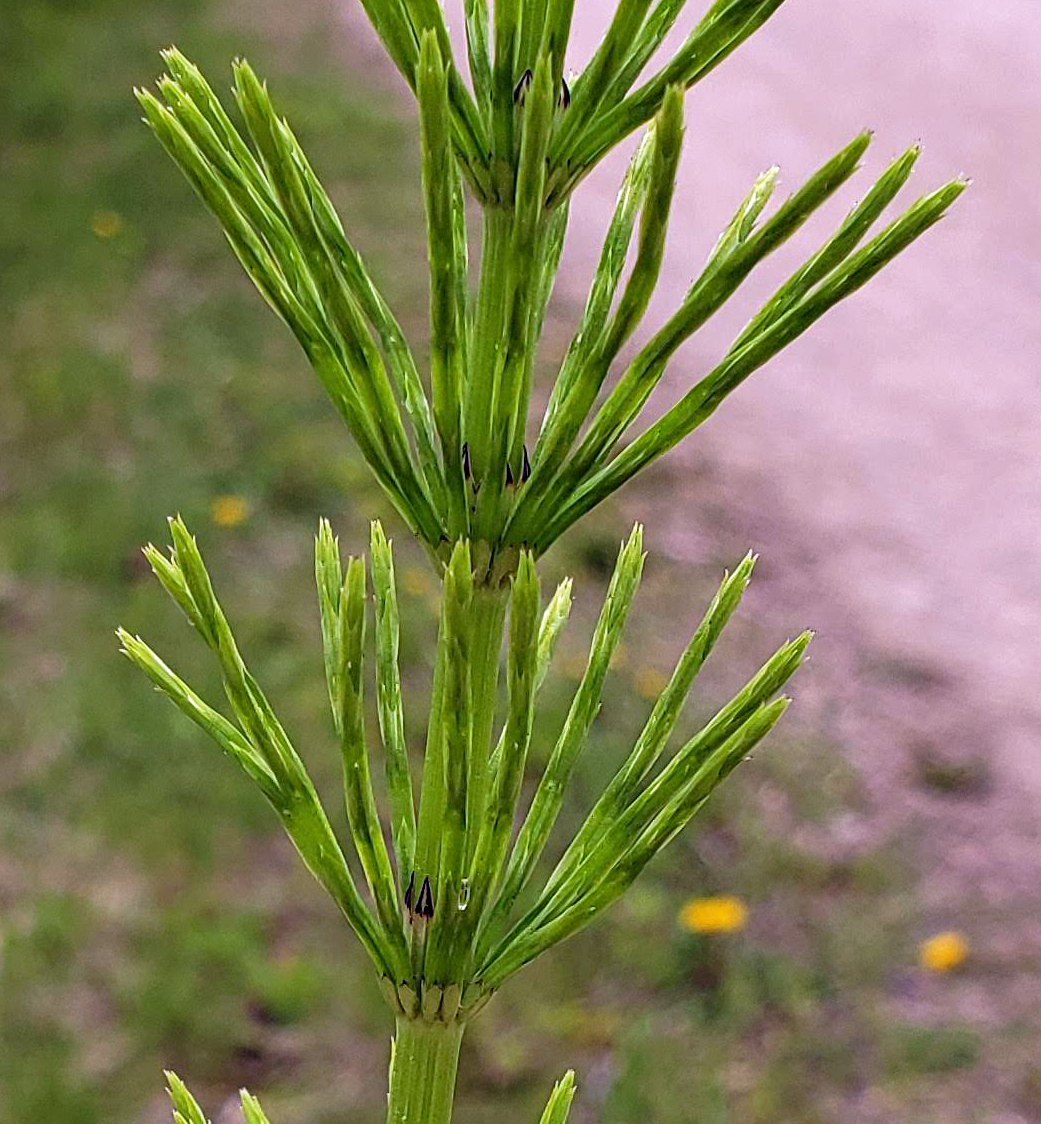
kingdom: Plantae
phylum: Tracheophyta
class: Polypodiopsida
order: Equisetales
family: Equisetaceae
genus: Equisetum
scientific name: Equisetum arvense
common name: Field horsetail
